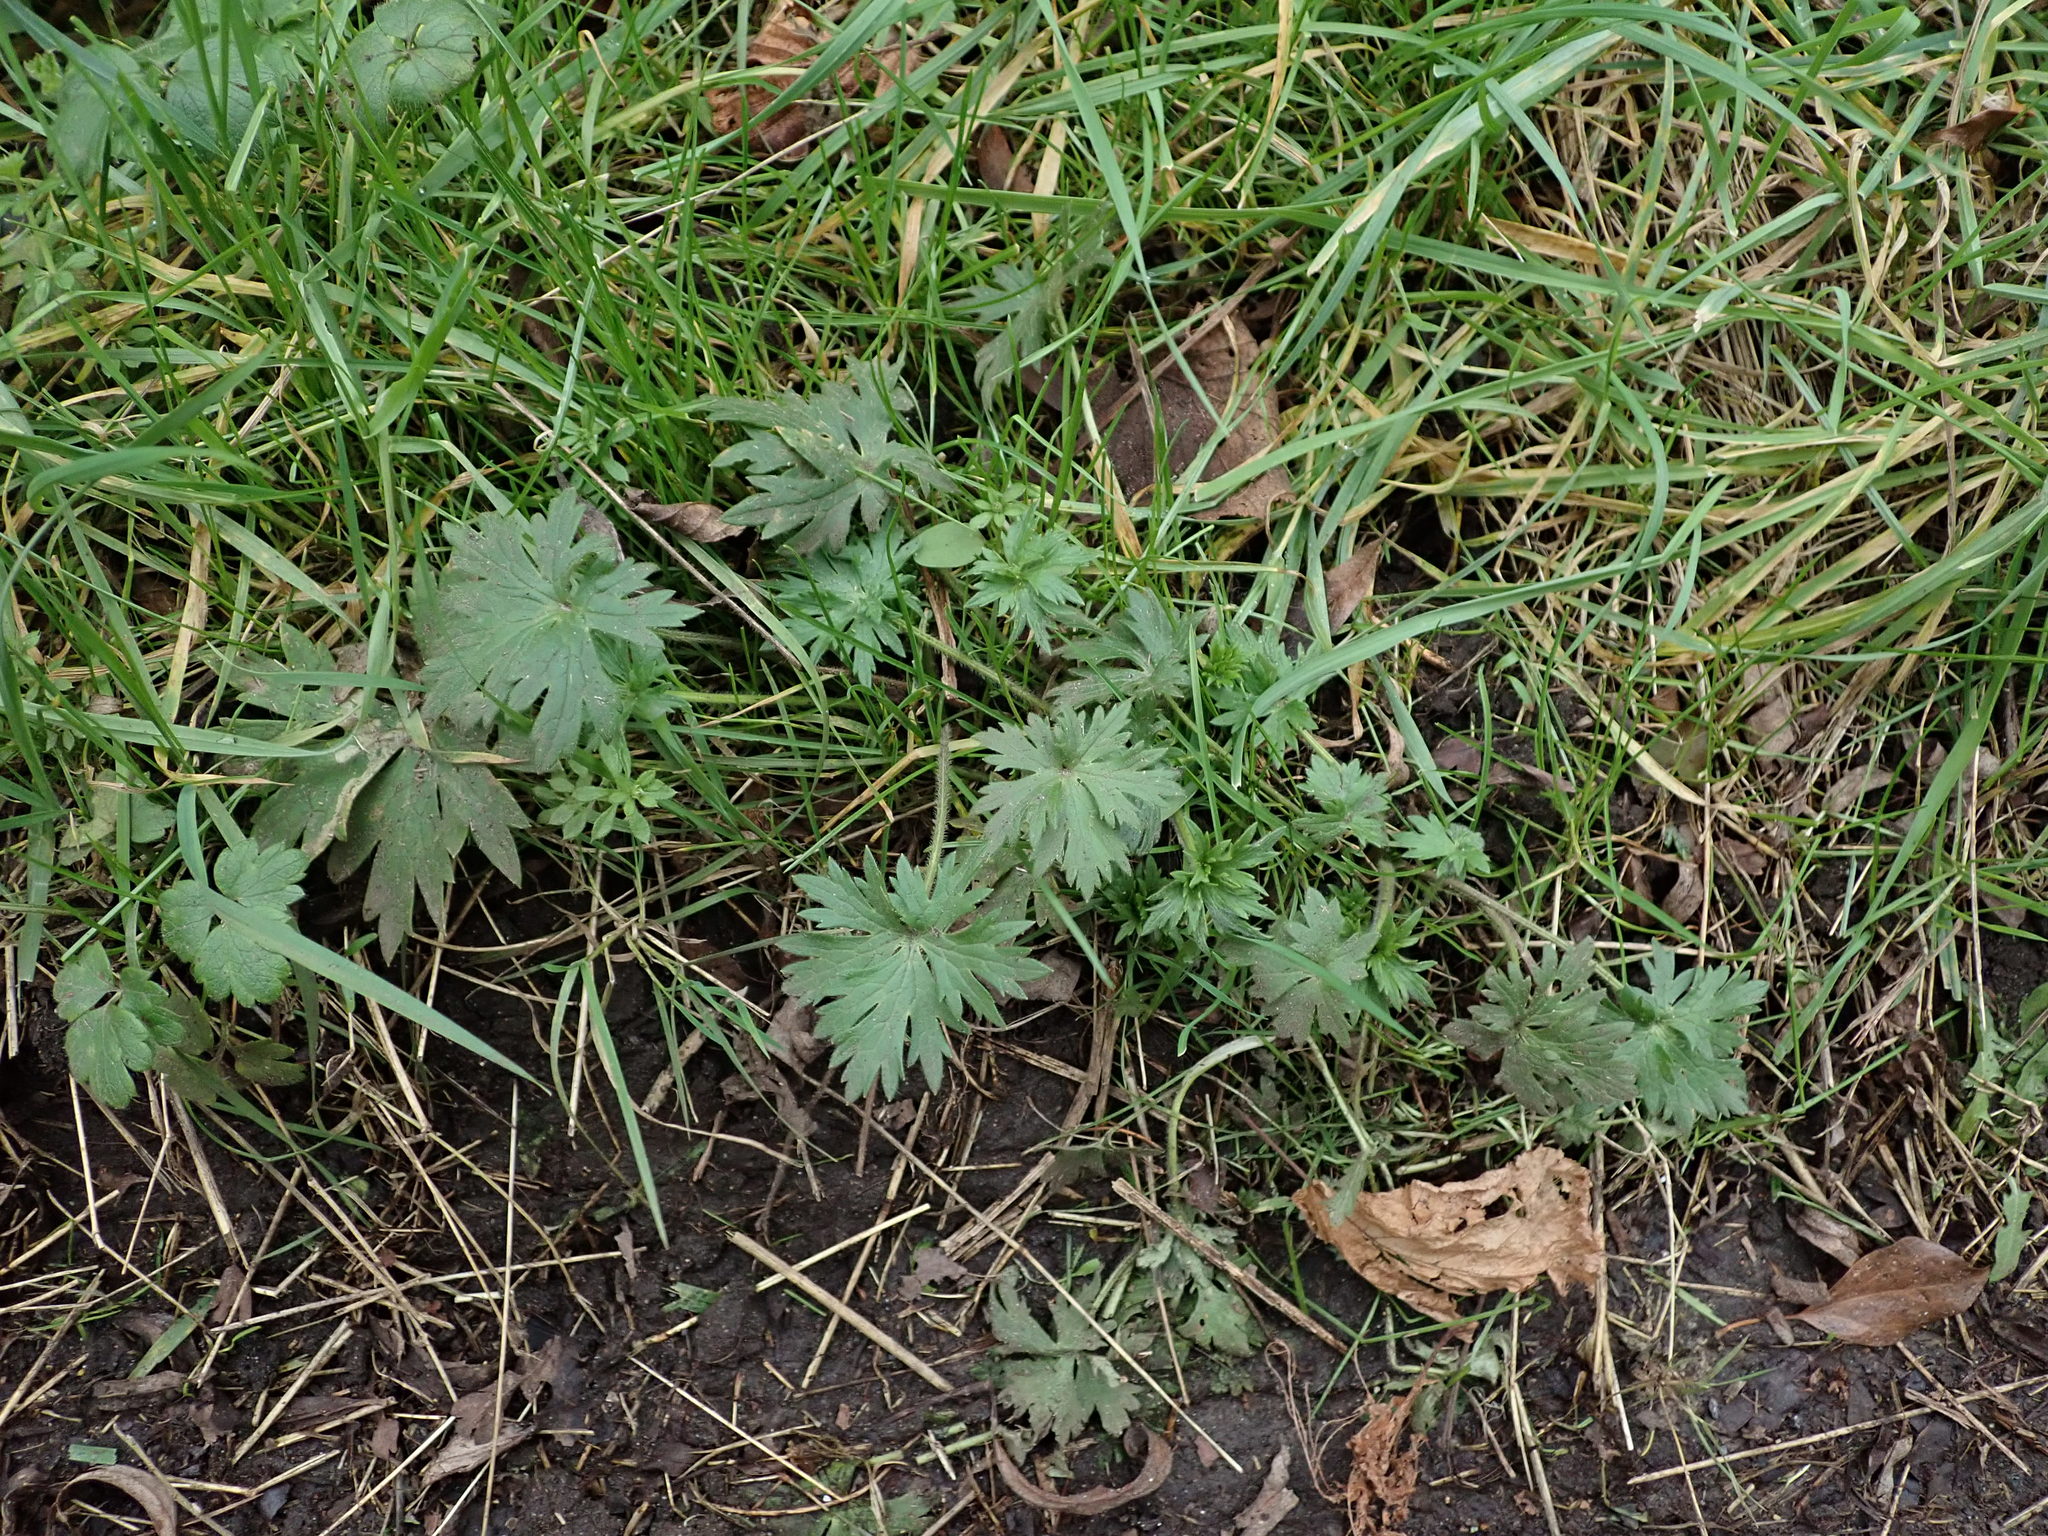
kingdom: Plantae
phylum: Tracheophyta
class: Magnoliopsida
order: Ranunculales
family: Ranunculaceae
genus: Ranunculus
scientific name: Ranunculus acris
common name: Meadow buttercup
